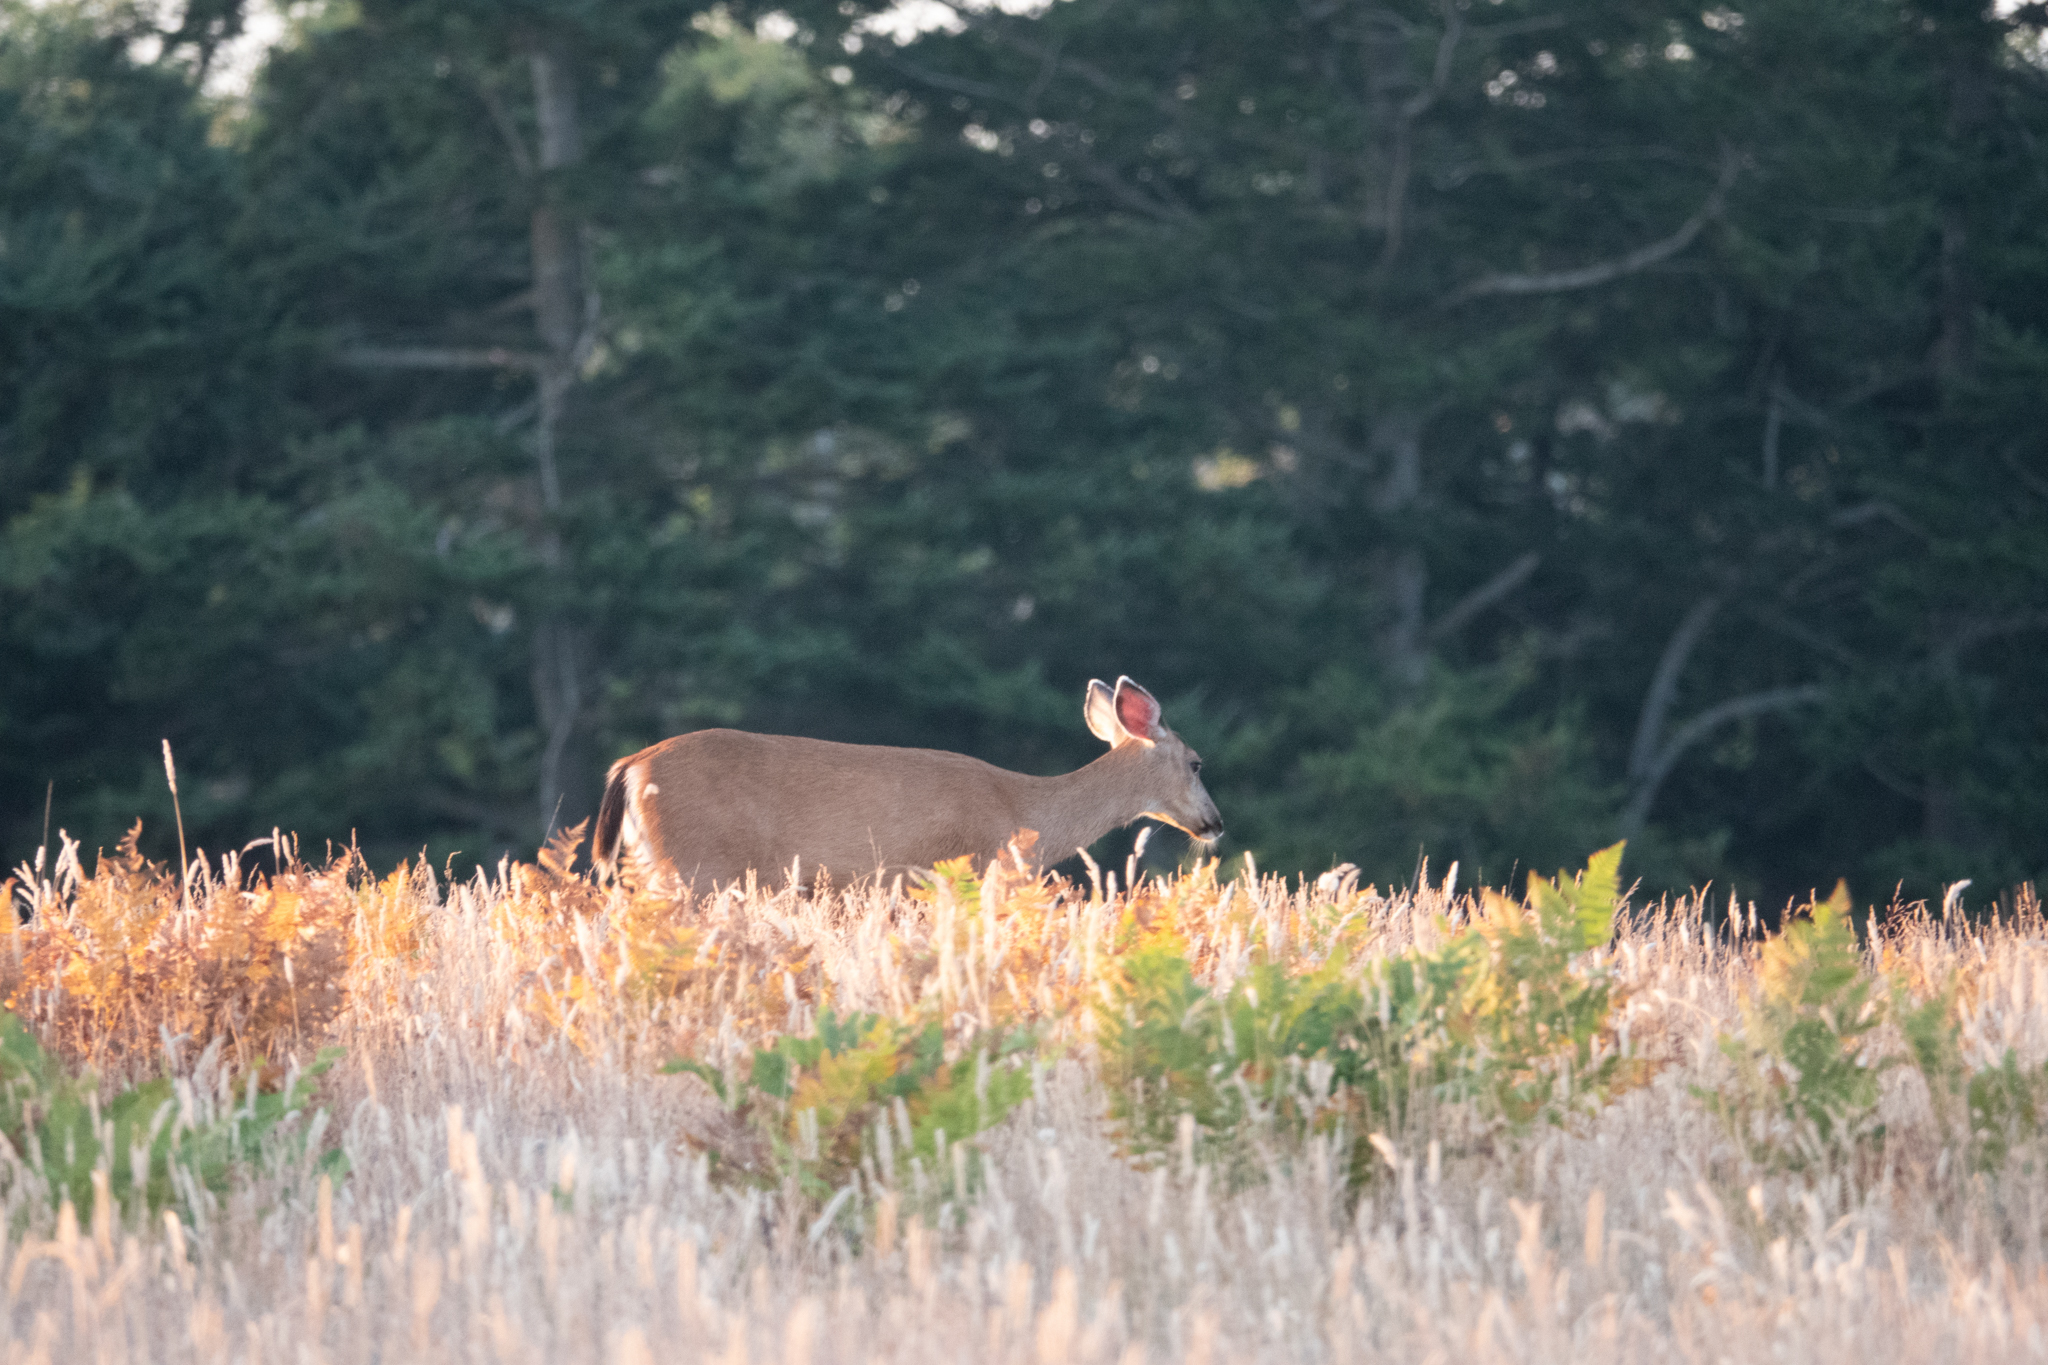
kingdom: Animalia
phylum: Chordata
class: Mammalia
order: Artiodactyla
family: Cervidae
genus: Odocoileus
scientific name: Odocoileus hemionus
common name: Mule deer
